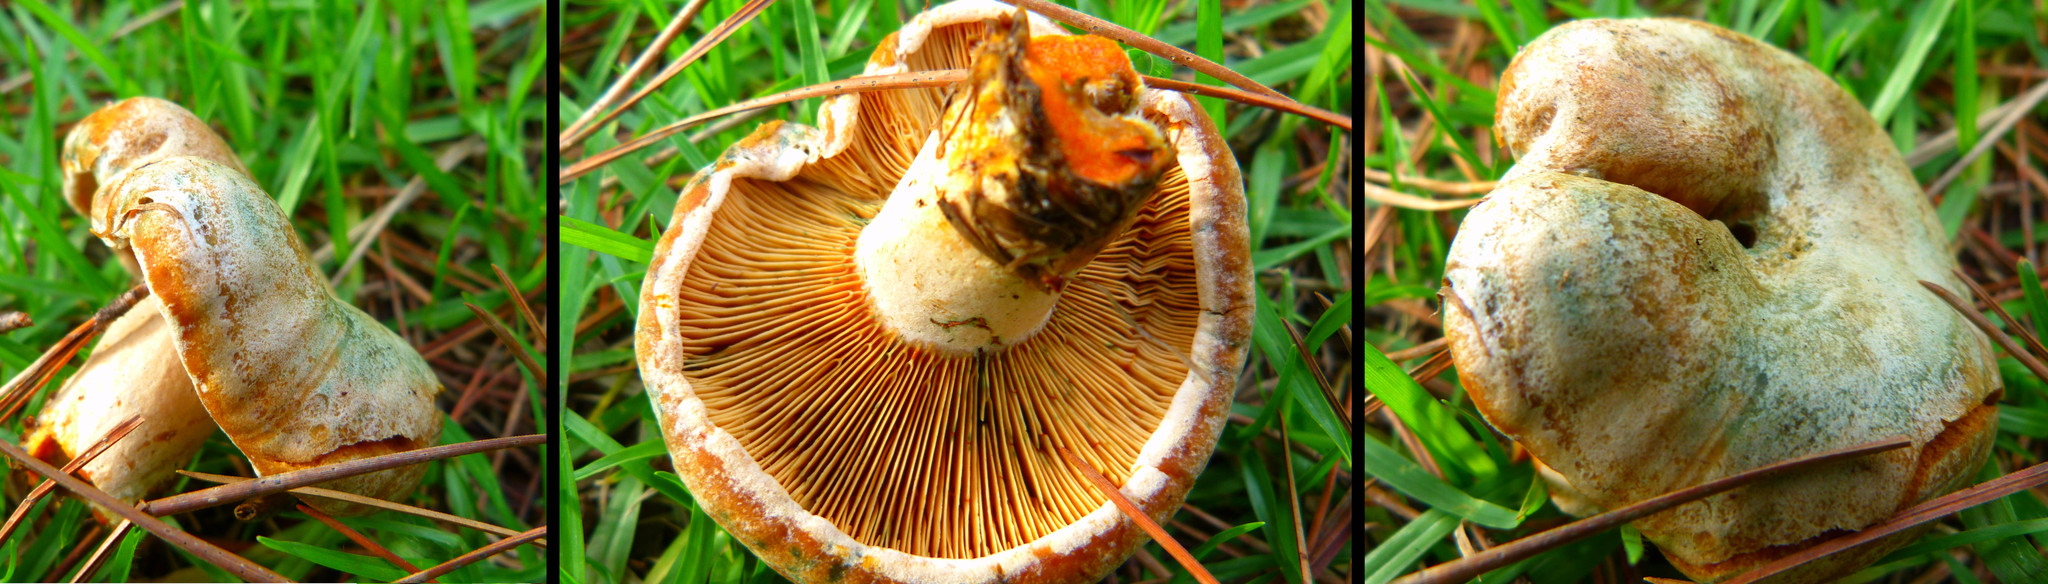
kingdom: Fungi
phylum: Basidiomycota
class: Agaricomycetes
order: Russulales
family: Russulaceae
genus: Lactarius
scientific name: Lactarius deliciosus
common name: Saffron milk-cap
